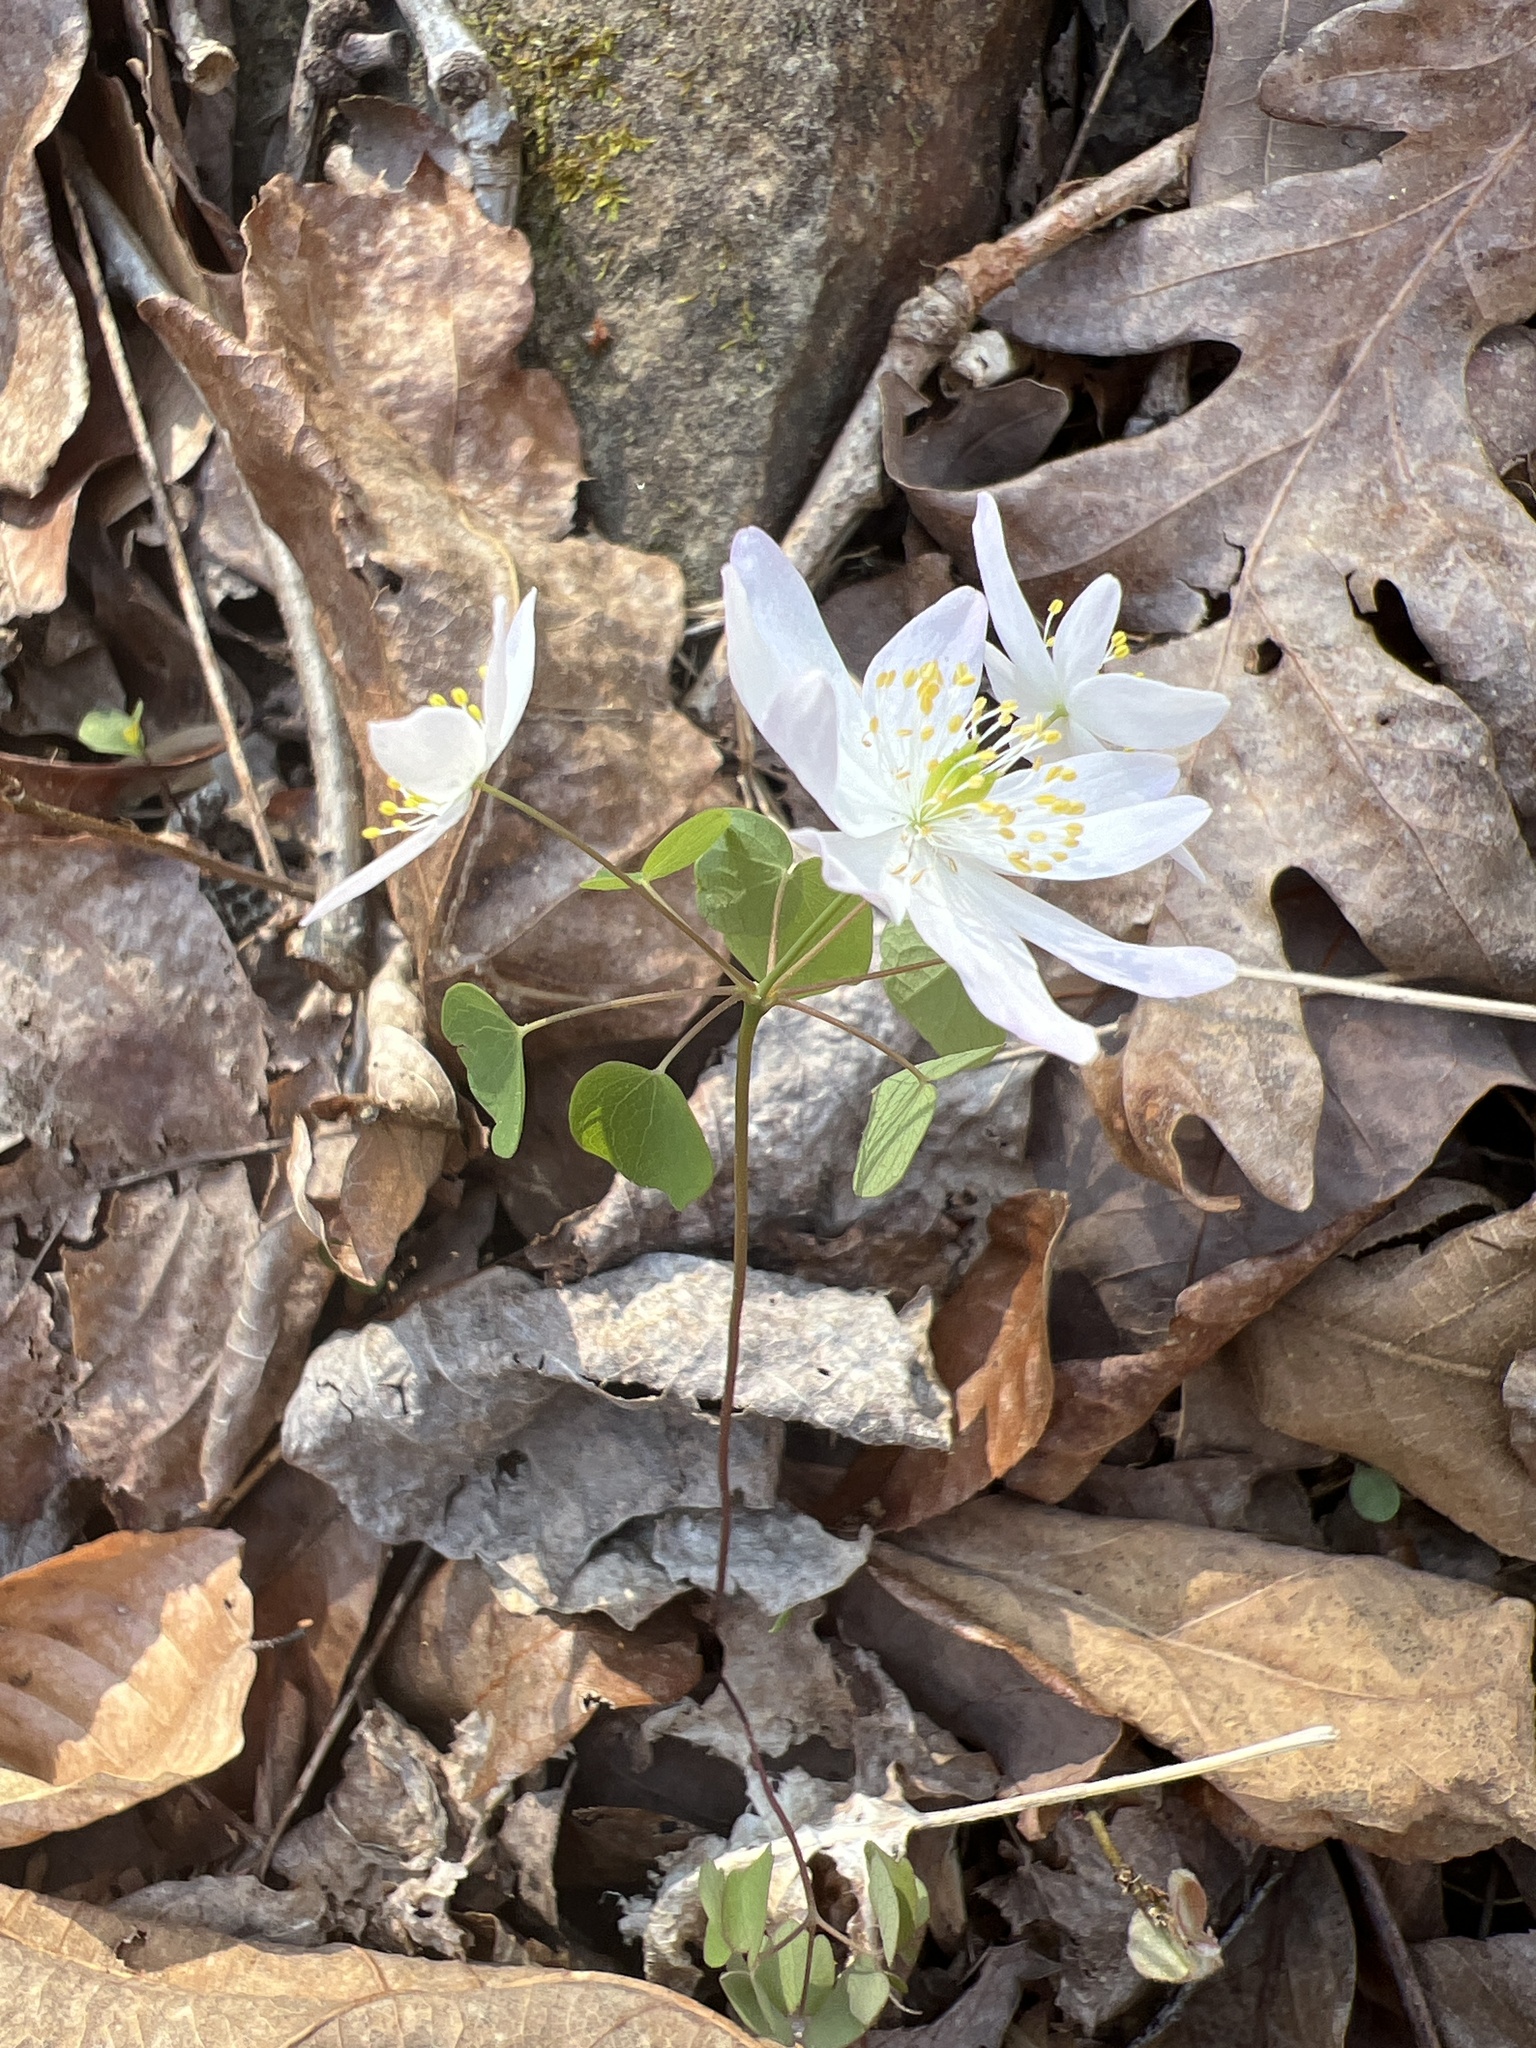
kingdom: Plantae
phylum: Tracheophyta
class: Magnoliopsida
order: Ranunculales
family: Ranunculaceae
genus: Thalictrum
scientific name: Thalictrum thalictroides
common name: Rue-anemone
